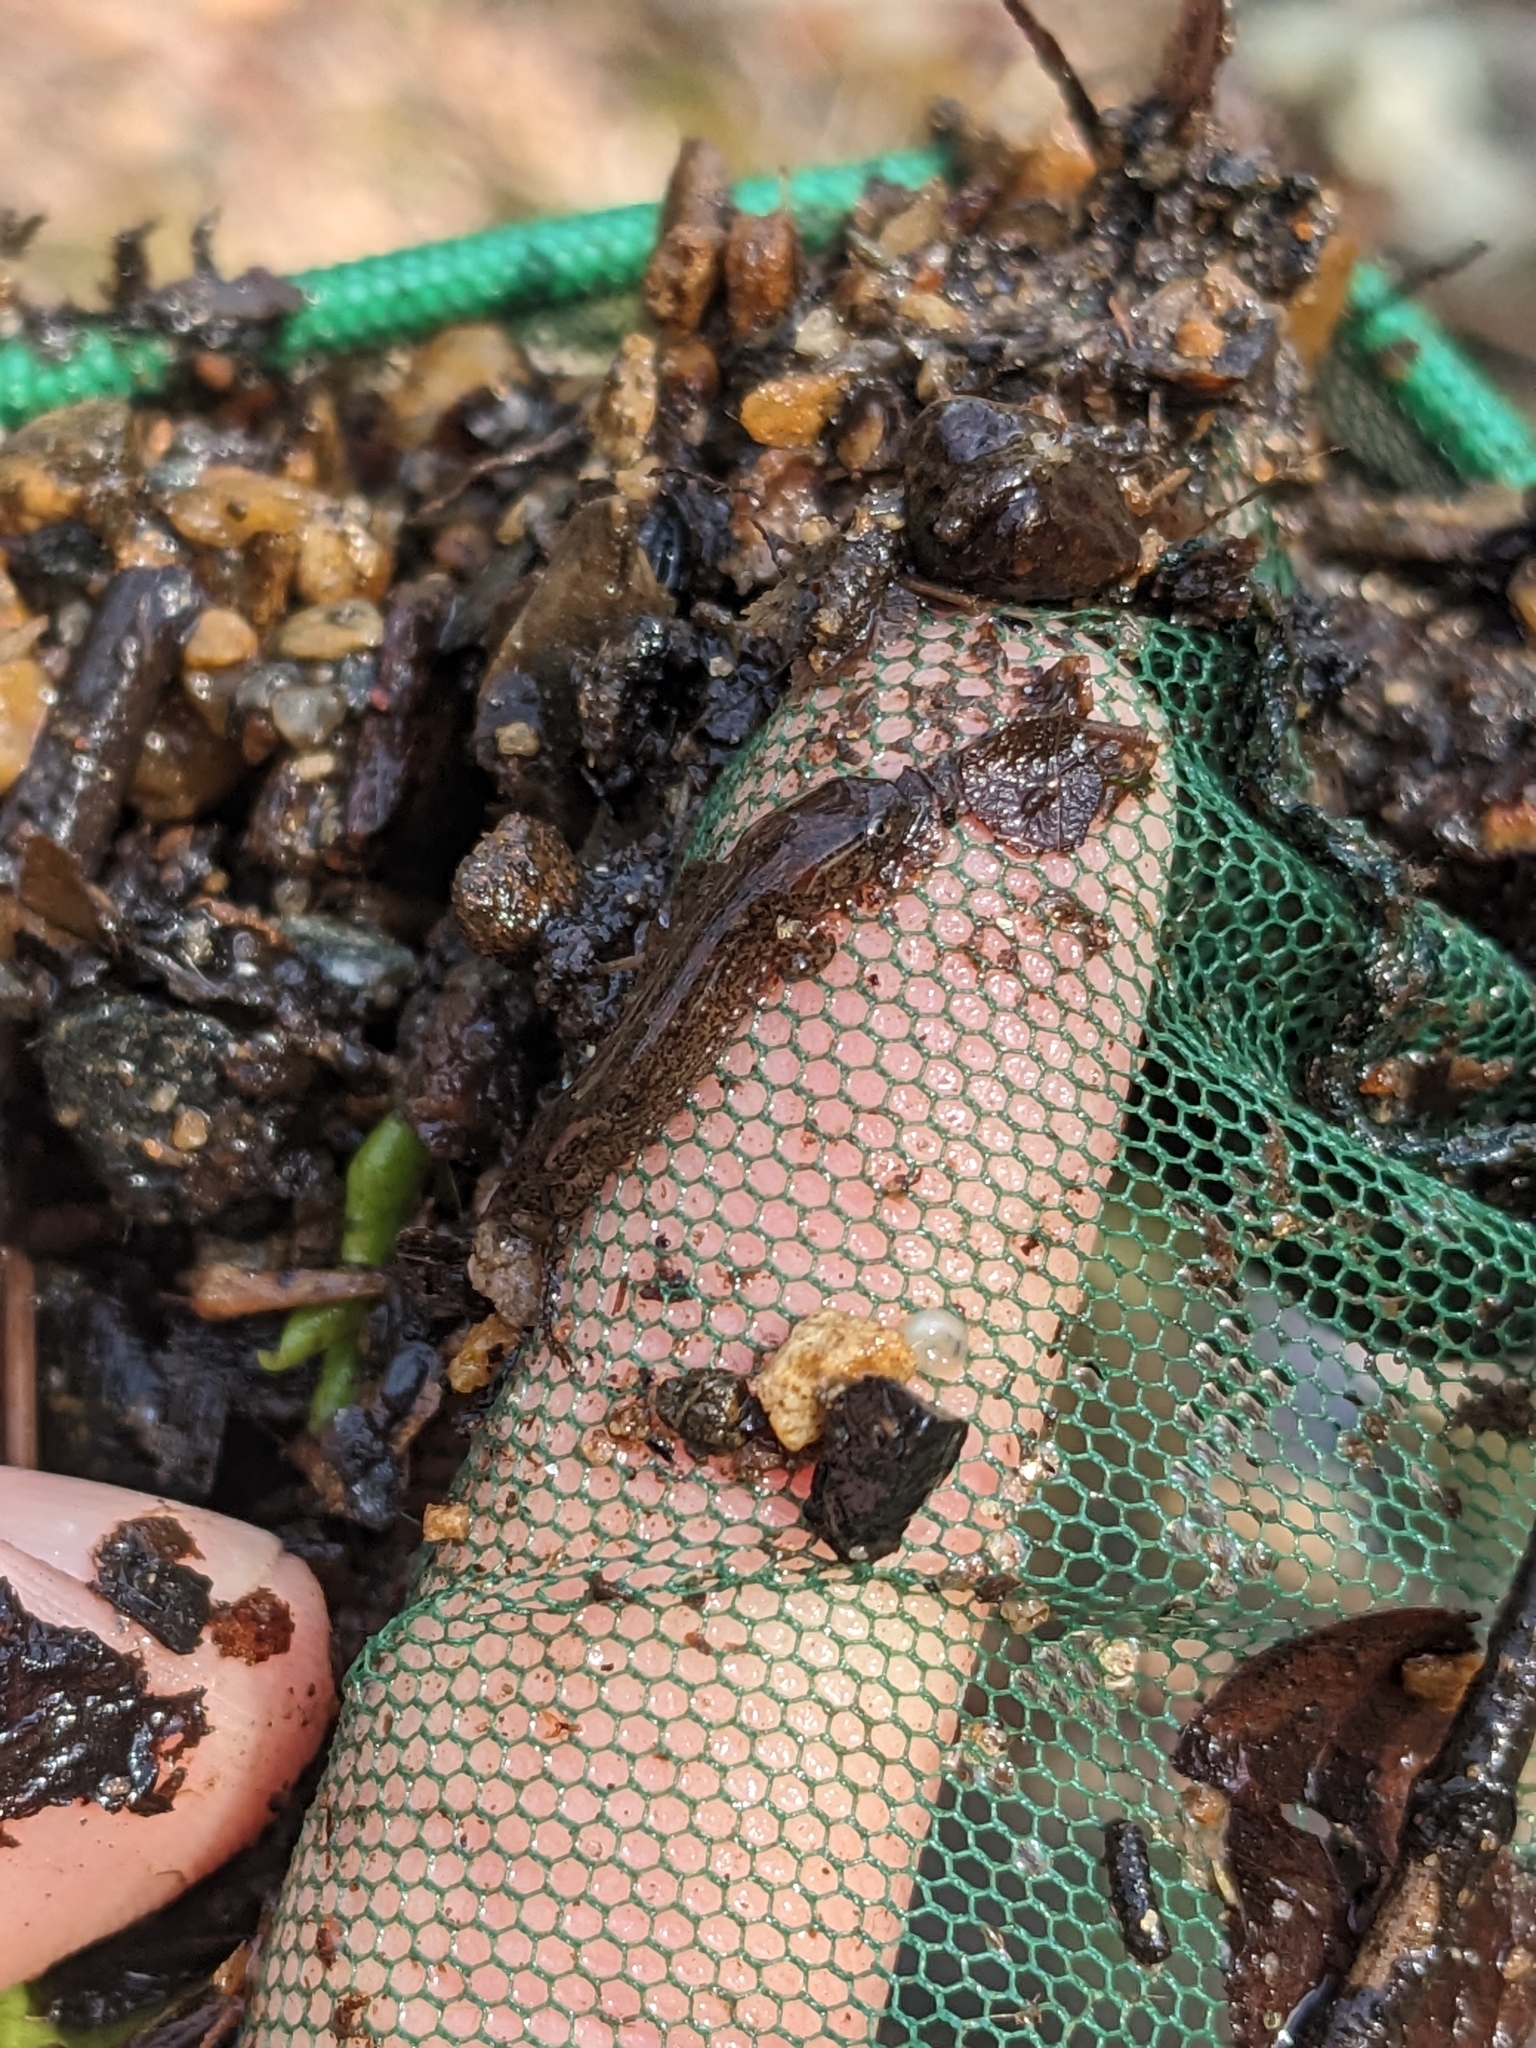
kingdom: Animalia
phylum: Chordata
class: Amphibia
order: Caudata
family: Plethodontidae
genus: Desmognathus
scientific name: Desmognathus planiceps
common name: Flat-headed salamander
